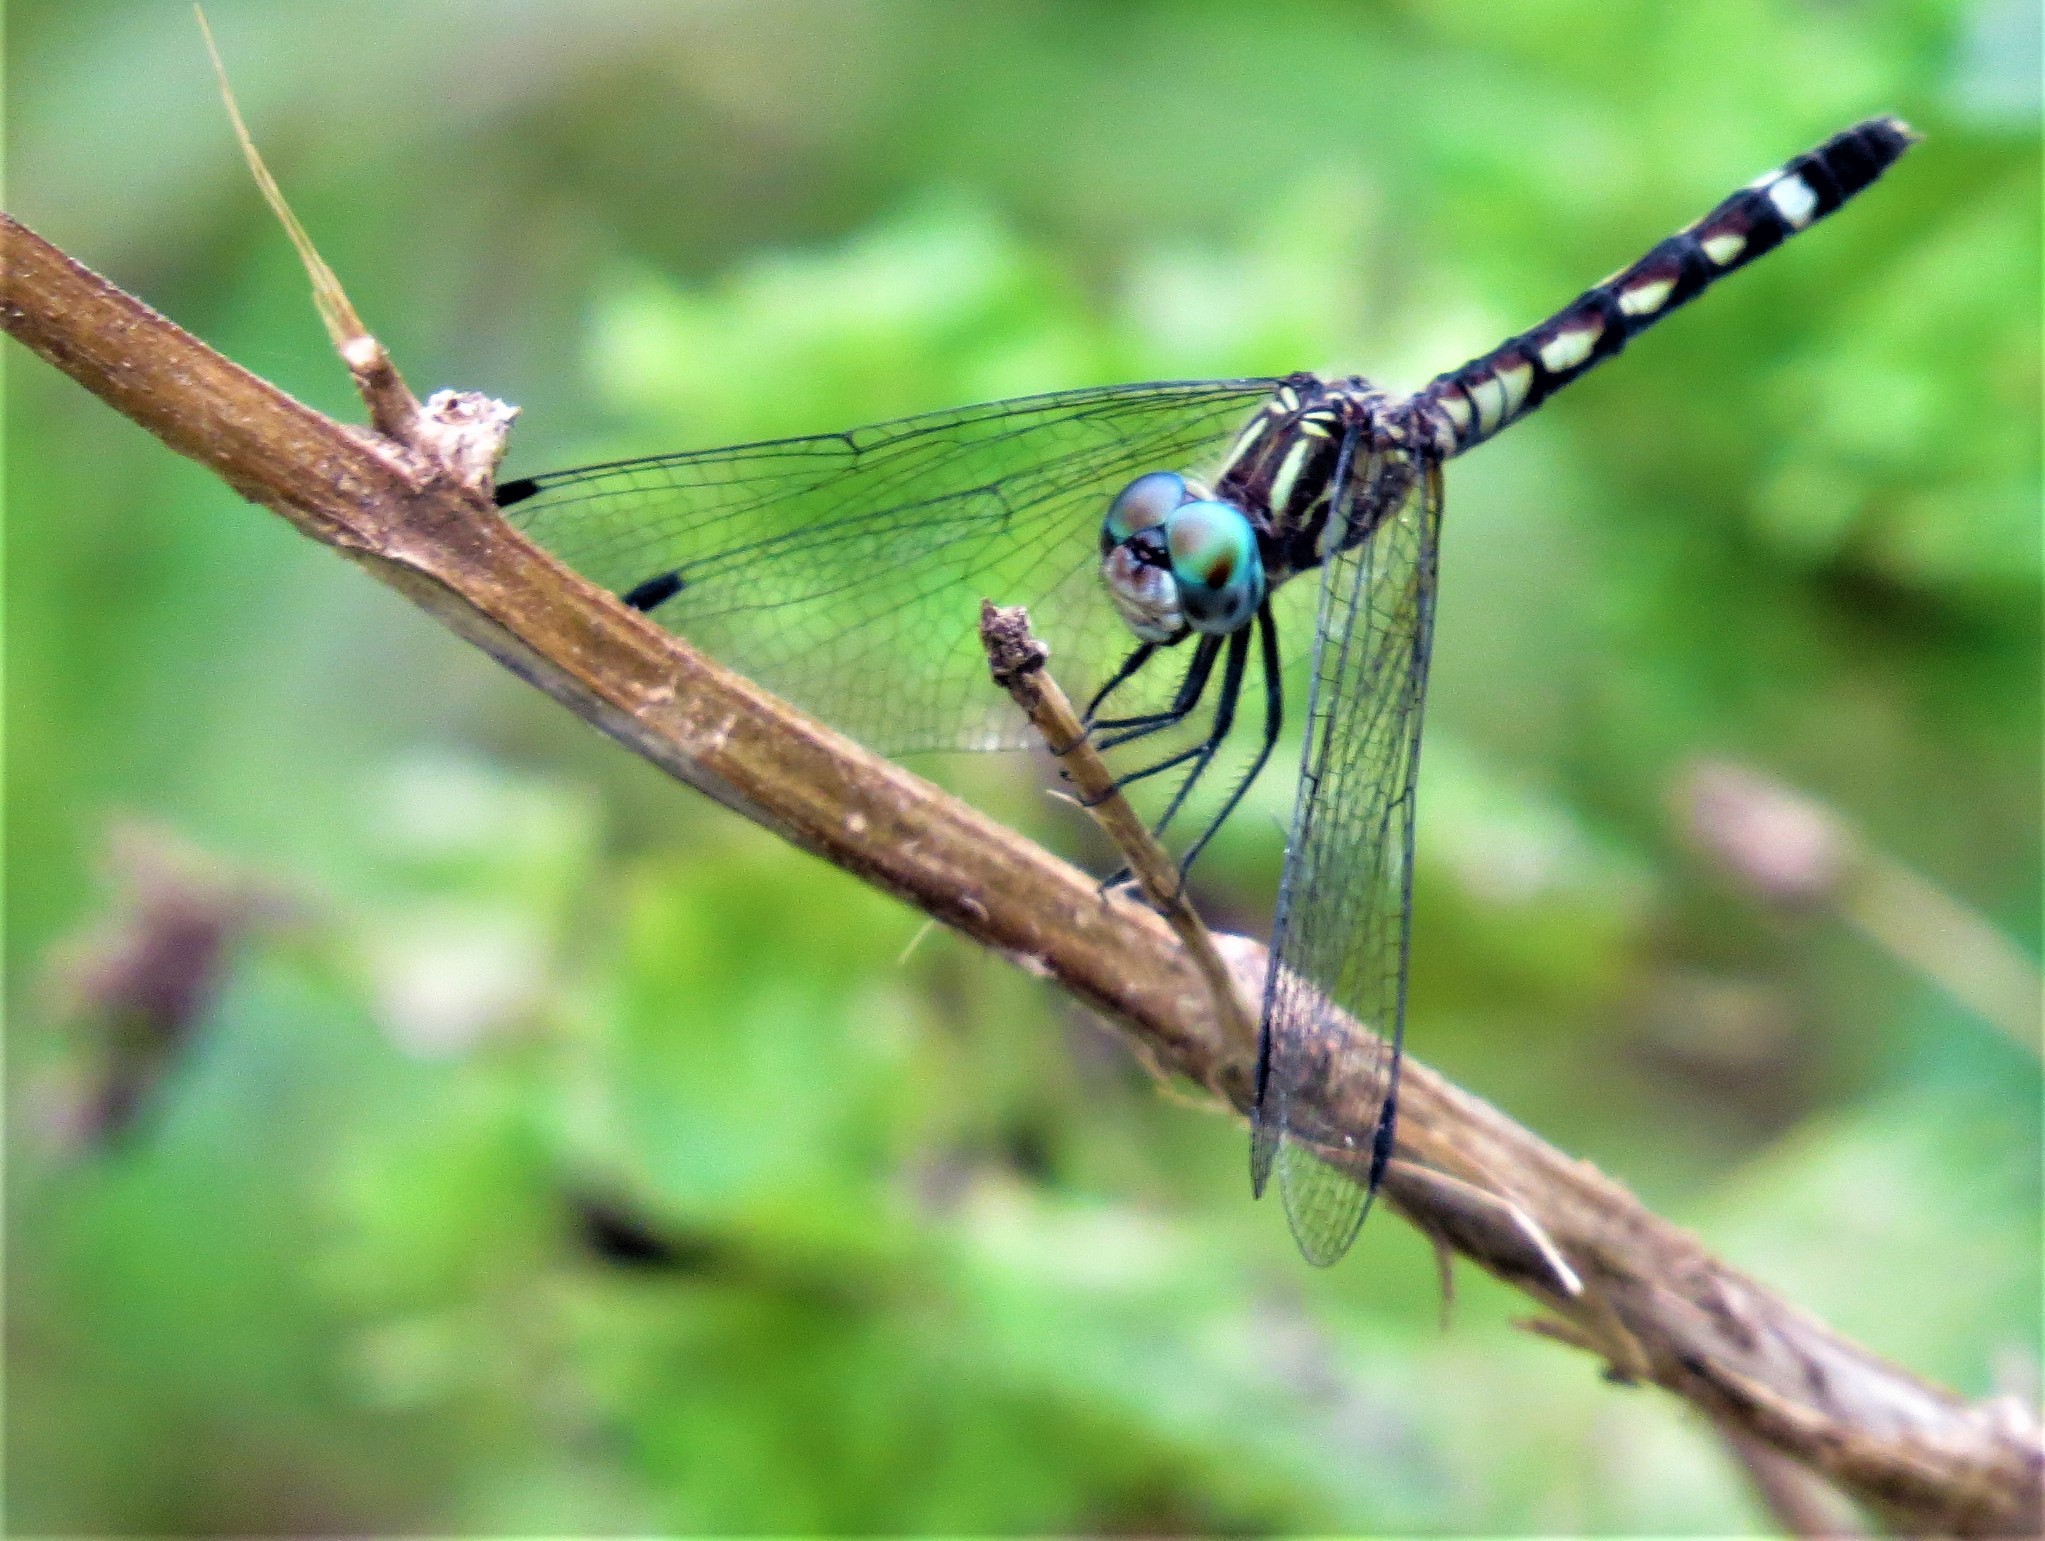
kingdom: Animalia
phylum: Arthropoda
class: Insecta
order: Odonata
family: Libellulidae
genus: Micrathyria
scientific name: Micrathyria hagenii
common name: Thornbush dasher
